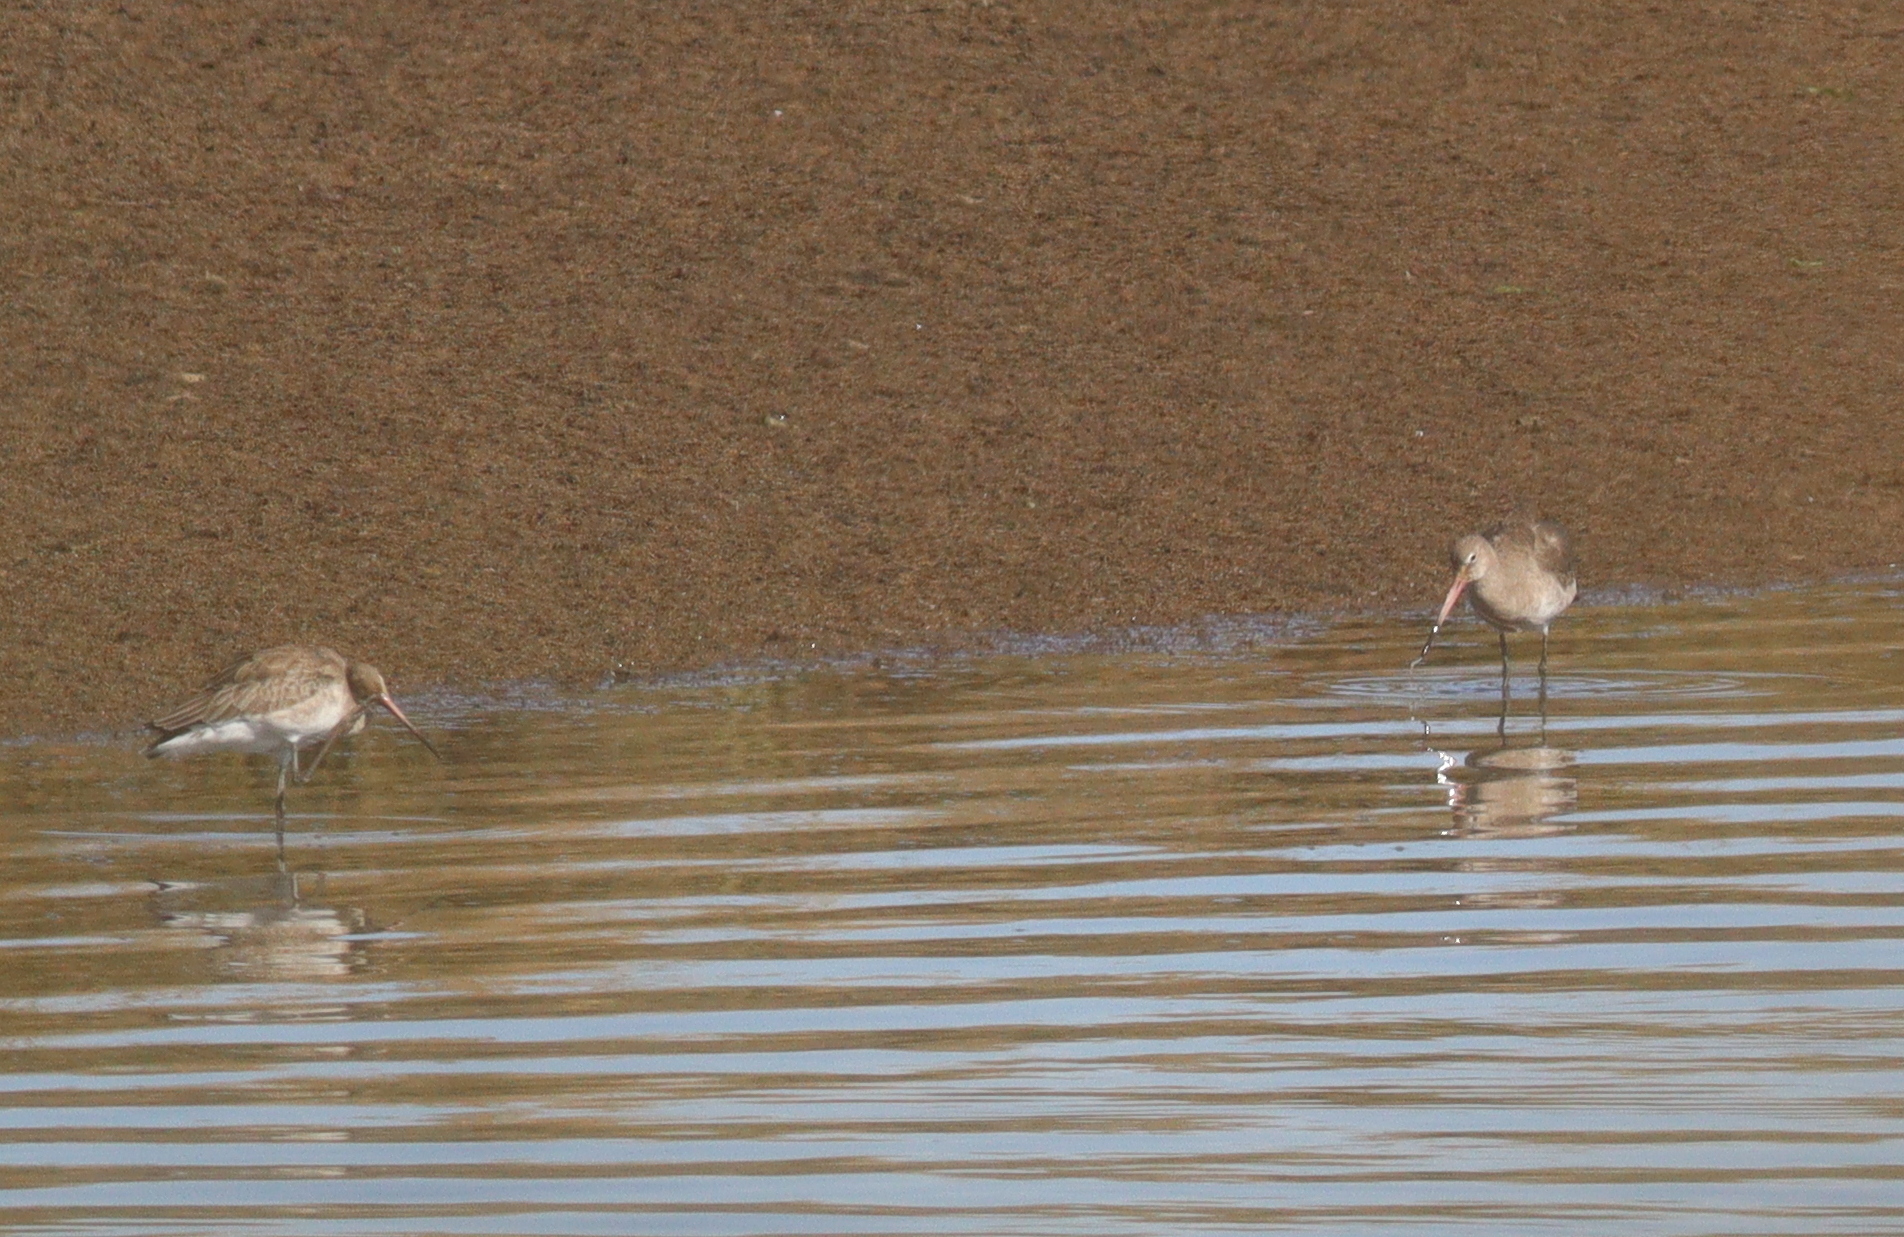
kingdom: Animalia
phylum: Chordata
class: Aves
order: Charadriiformes
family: Scolopacidae
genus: Limosa
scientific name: Limosa limosa
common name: Black-tailed godwit
